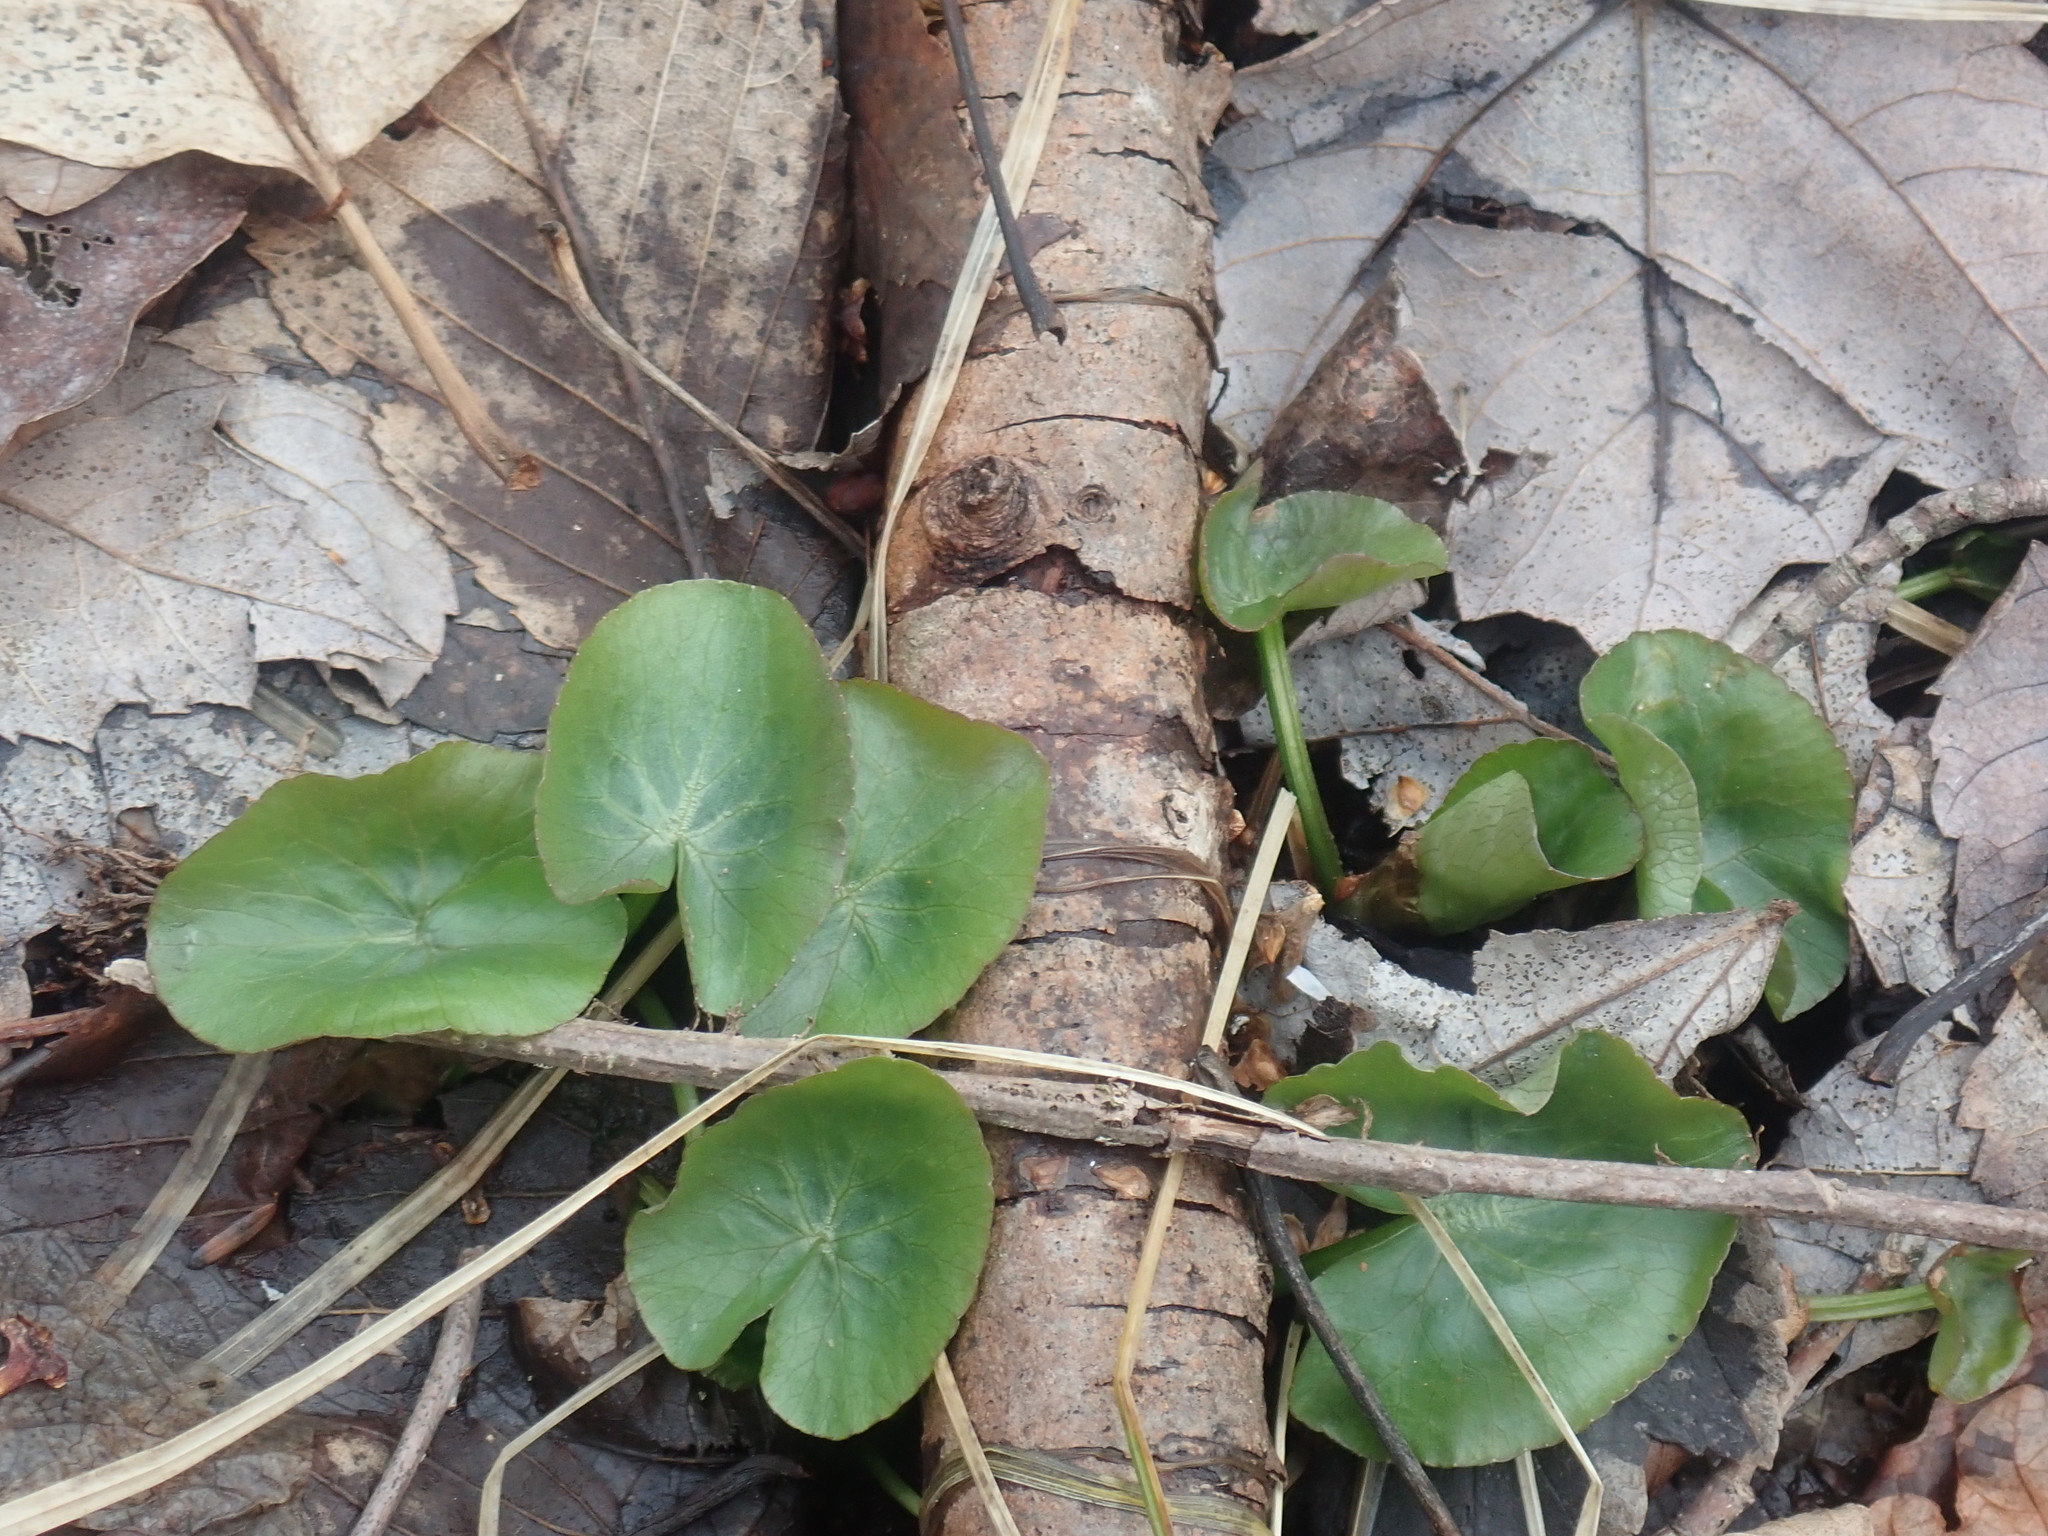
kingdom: Plantae
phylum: Tracheophyta
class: Magnoliopsida
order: Ranunculales
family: Ranunculaceae
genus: Caltha
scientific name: Caltha palustris
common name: Marsh marigold
